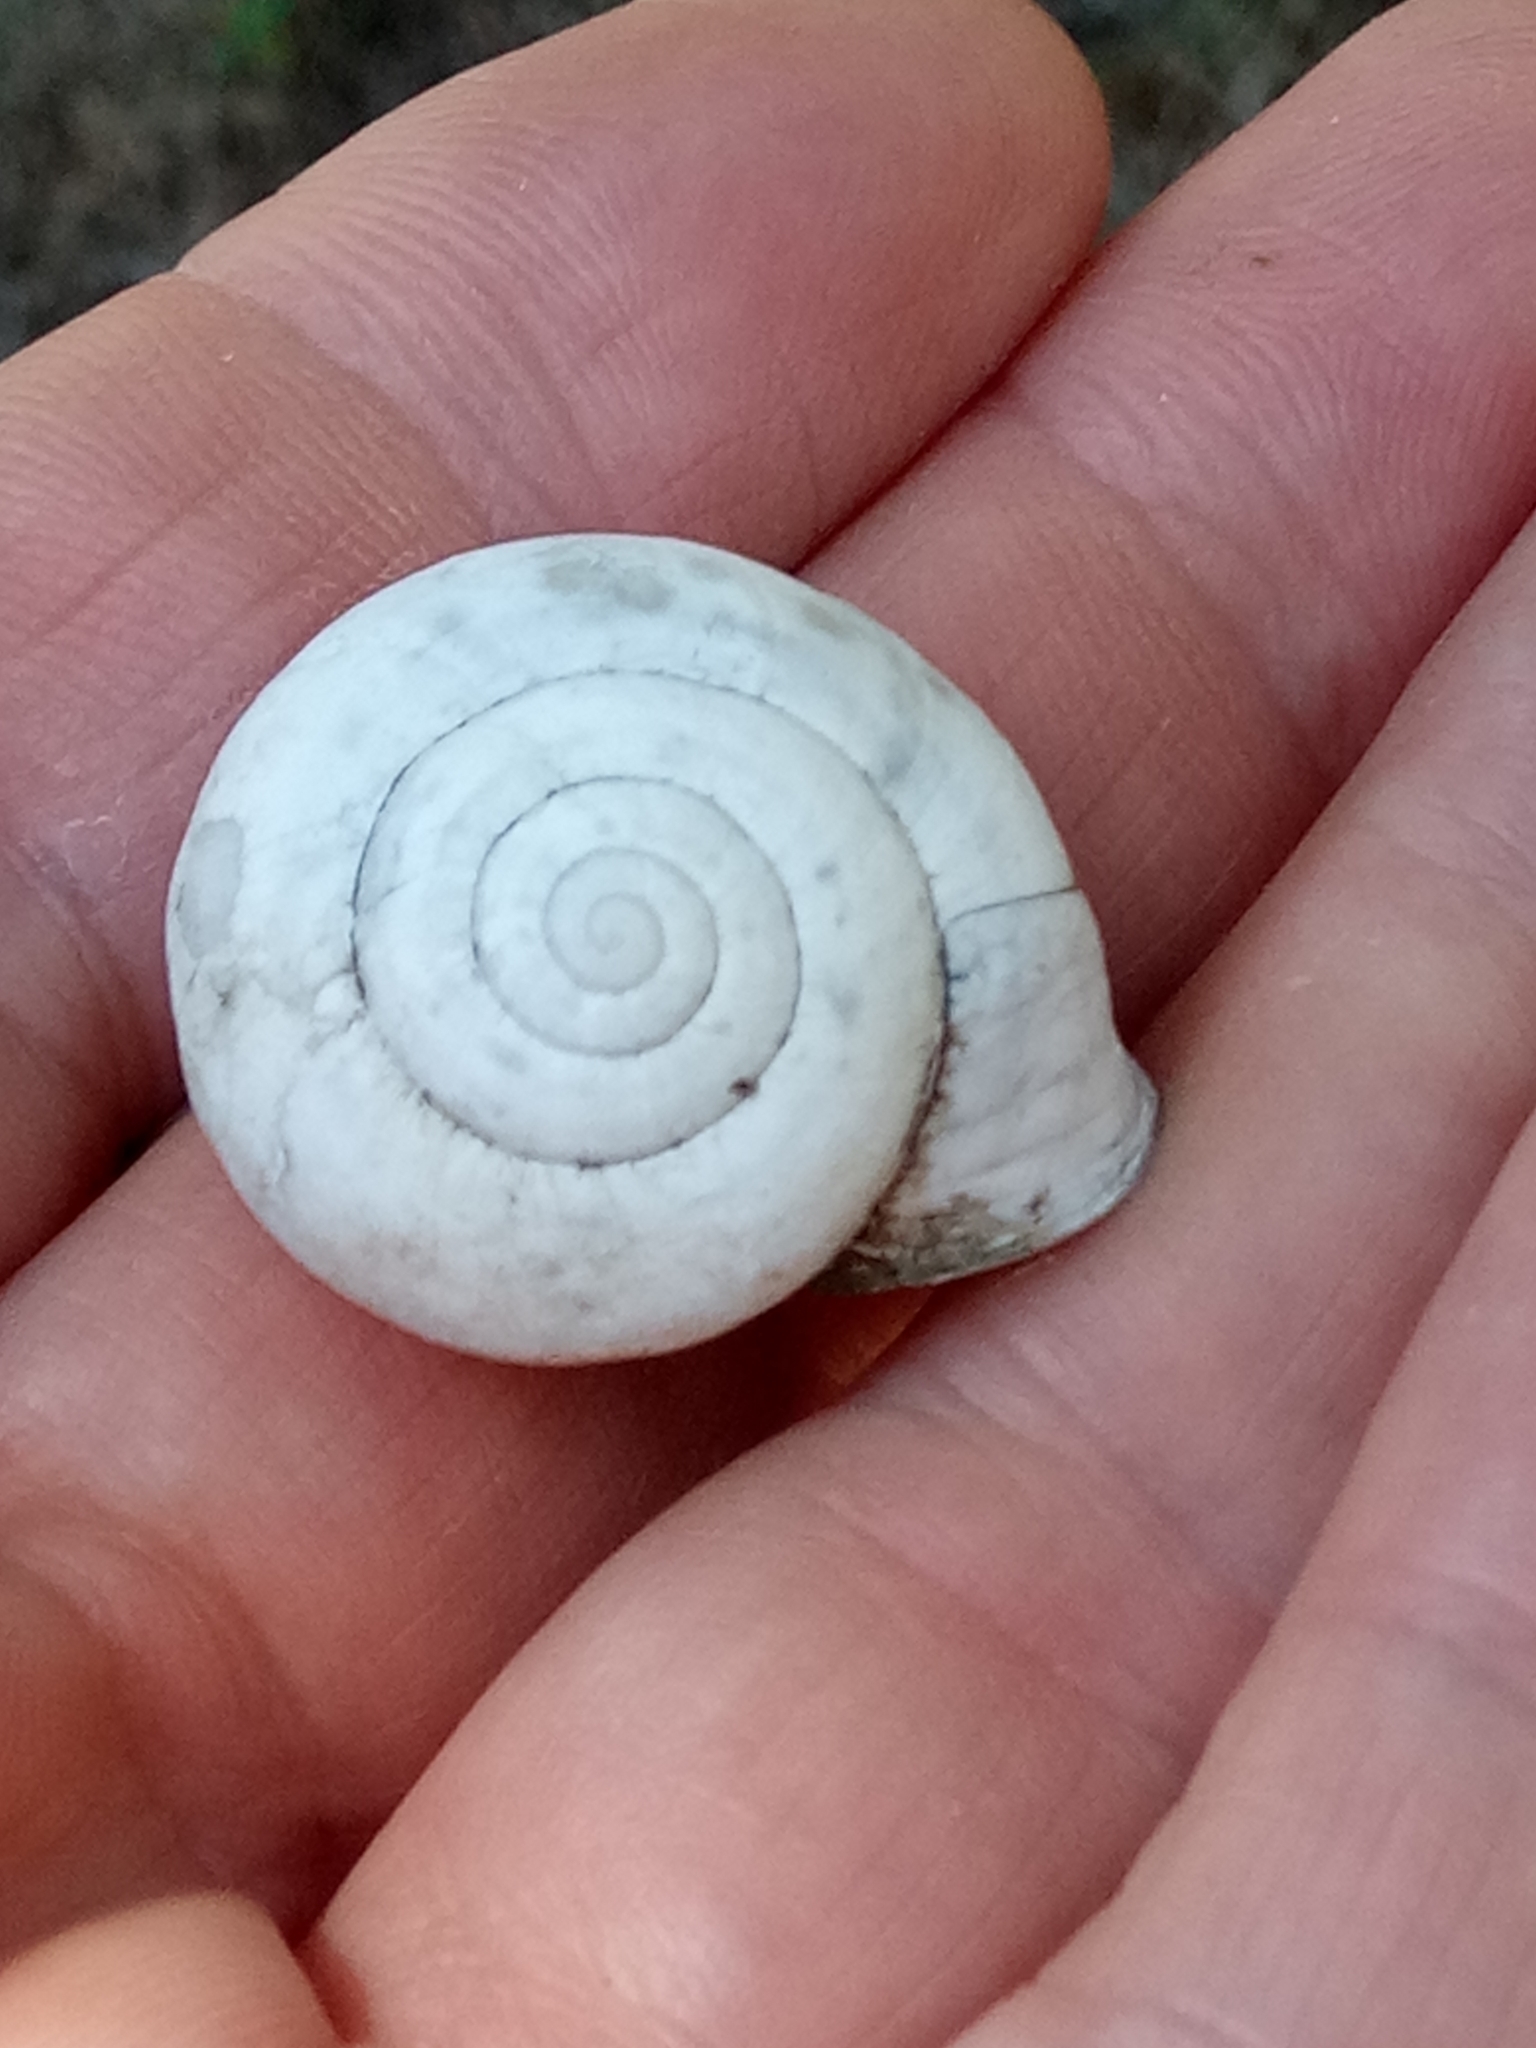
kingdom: Animalia
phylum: Mollusca
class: Gastropoda
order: Stylommatophora
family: Helicidae
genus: Eobania
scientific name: Eobania constantina
